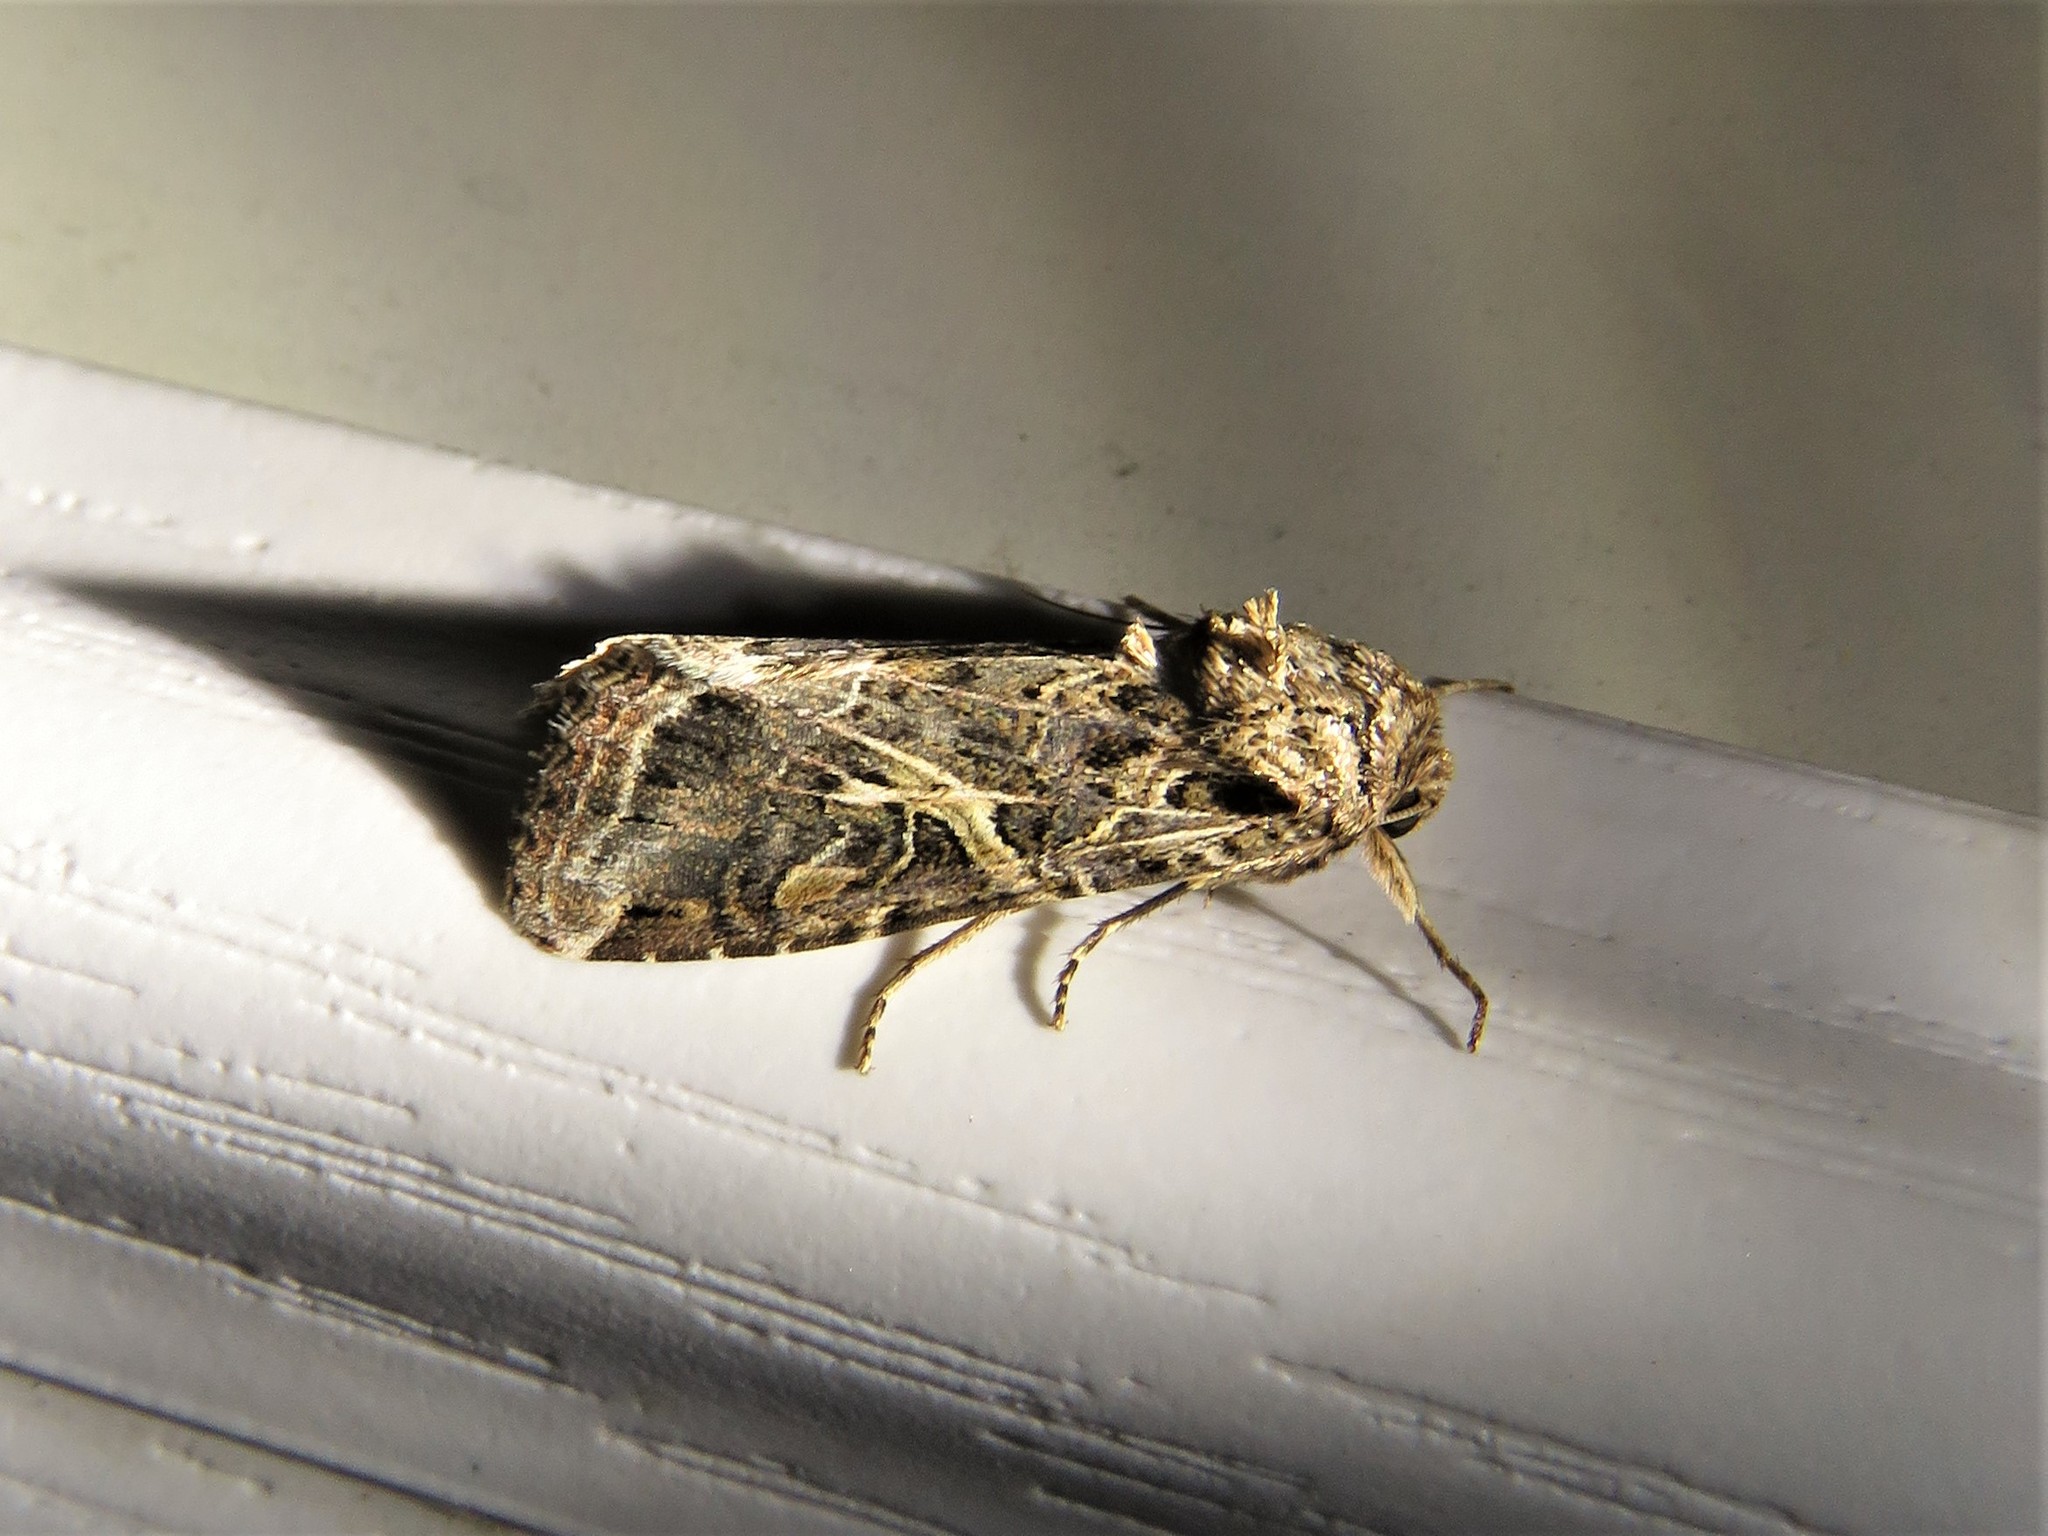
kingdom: Animalia
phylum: Arthropoda
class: Insecta
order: Lepidoptera
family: Noctuidae
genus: Spodoptera
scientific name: Spodoptera ornithogalli
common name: Yellow-striped armyworm
